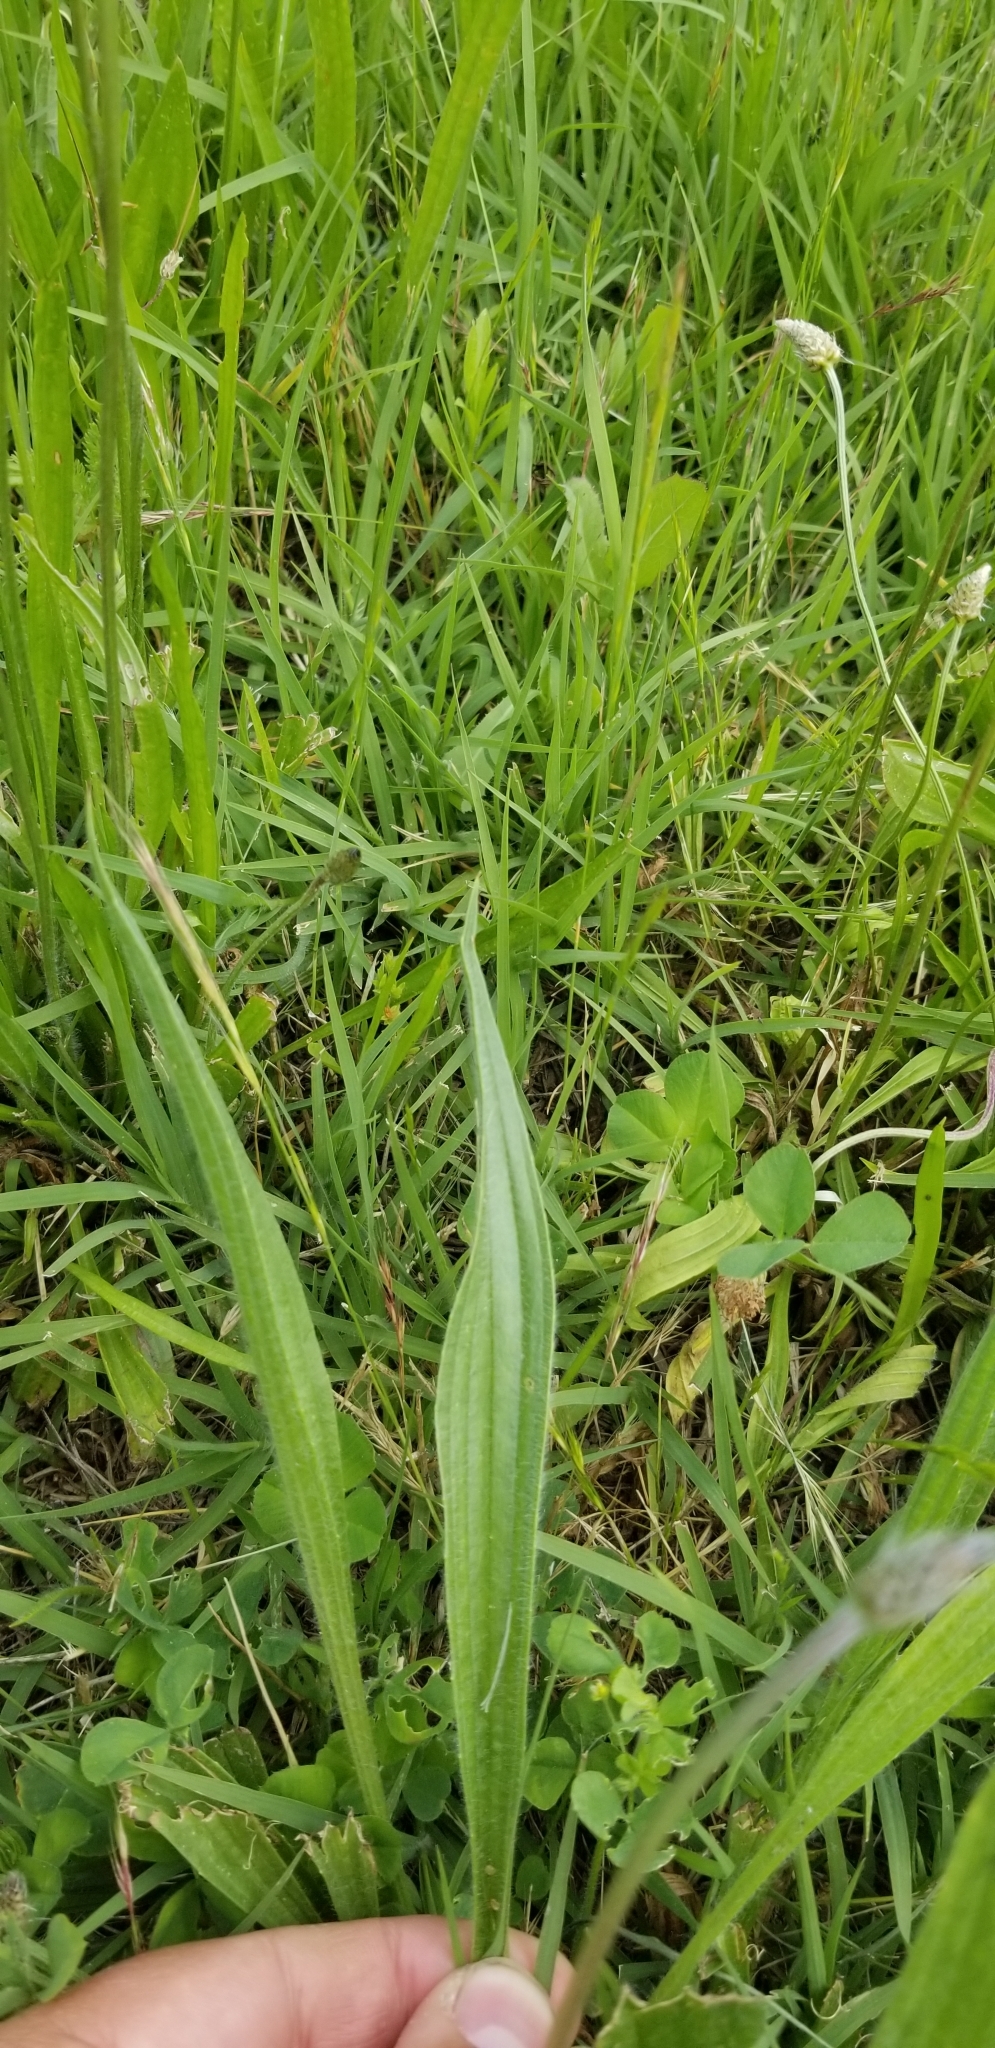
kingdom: Plantae
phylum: Tracheophyta
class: Magnoliopsida
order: Lamiales
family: Plantaginaceae
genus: Plantago
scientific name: Plantago lanceolata
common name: Ribwort plantain
